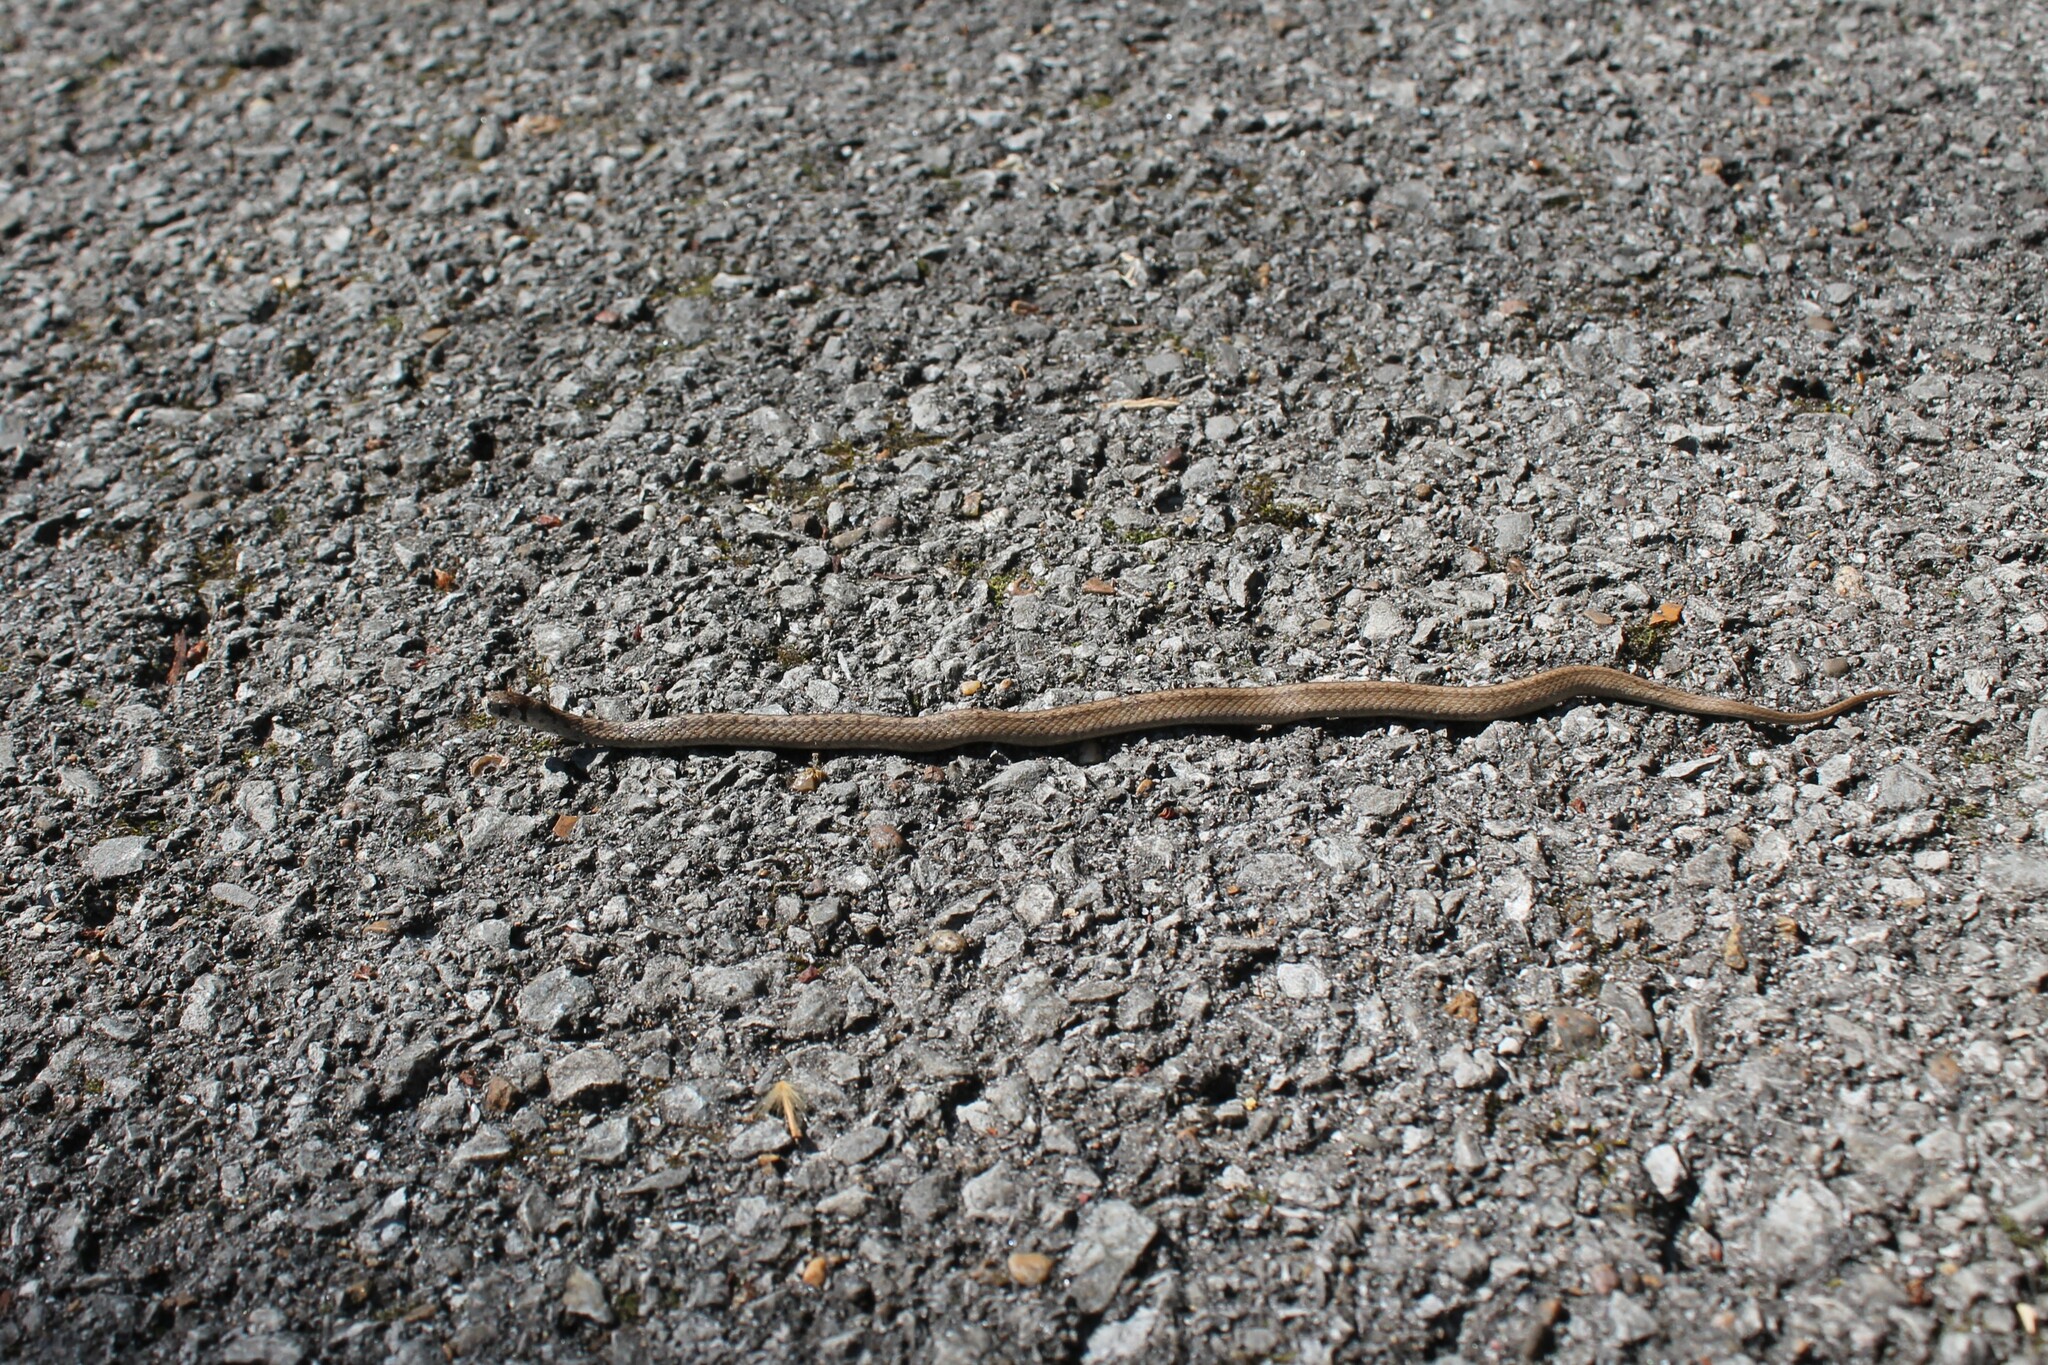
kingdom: Animalia
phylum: Chordata
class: Squamata
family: Colubridae
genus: Storeria
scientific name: Storeria dekayi
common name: (dekay’s) brown snake
